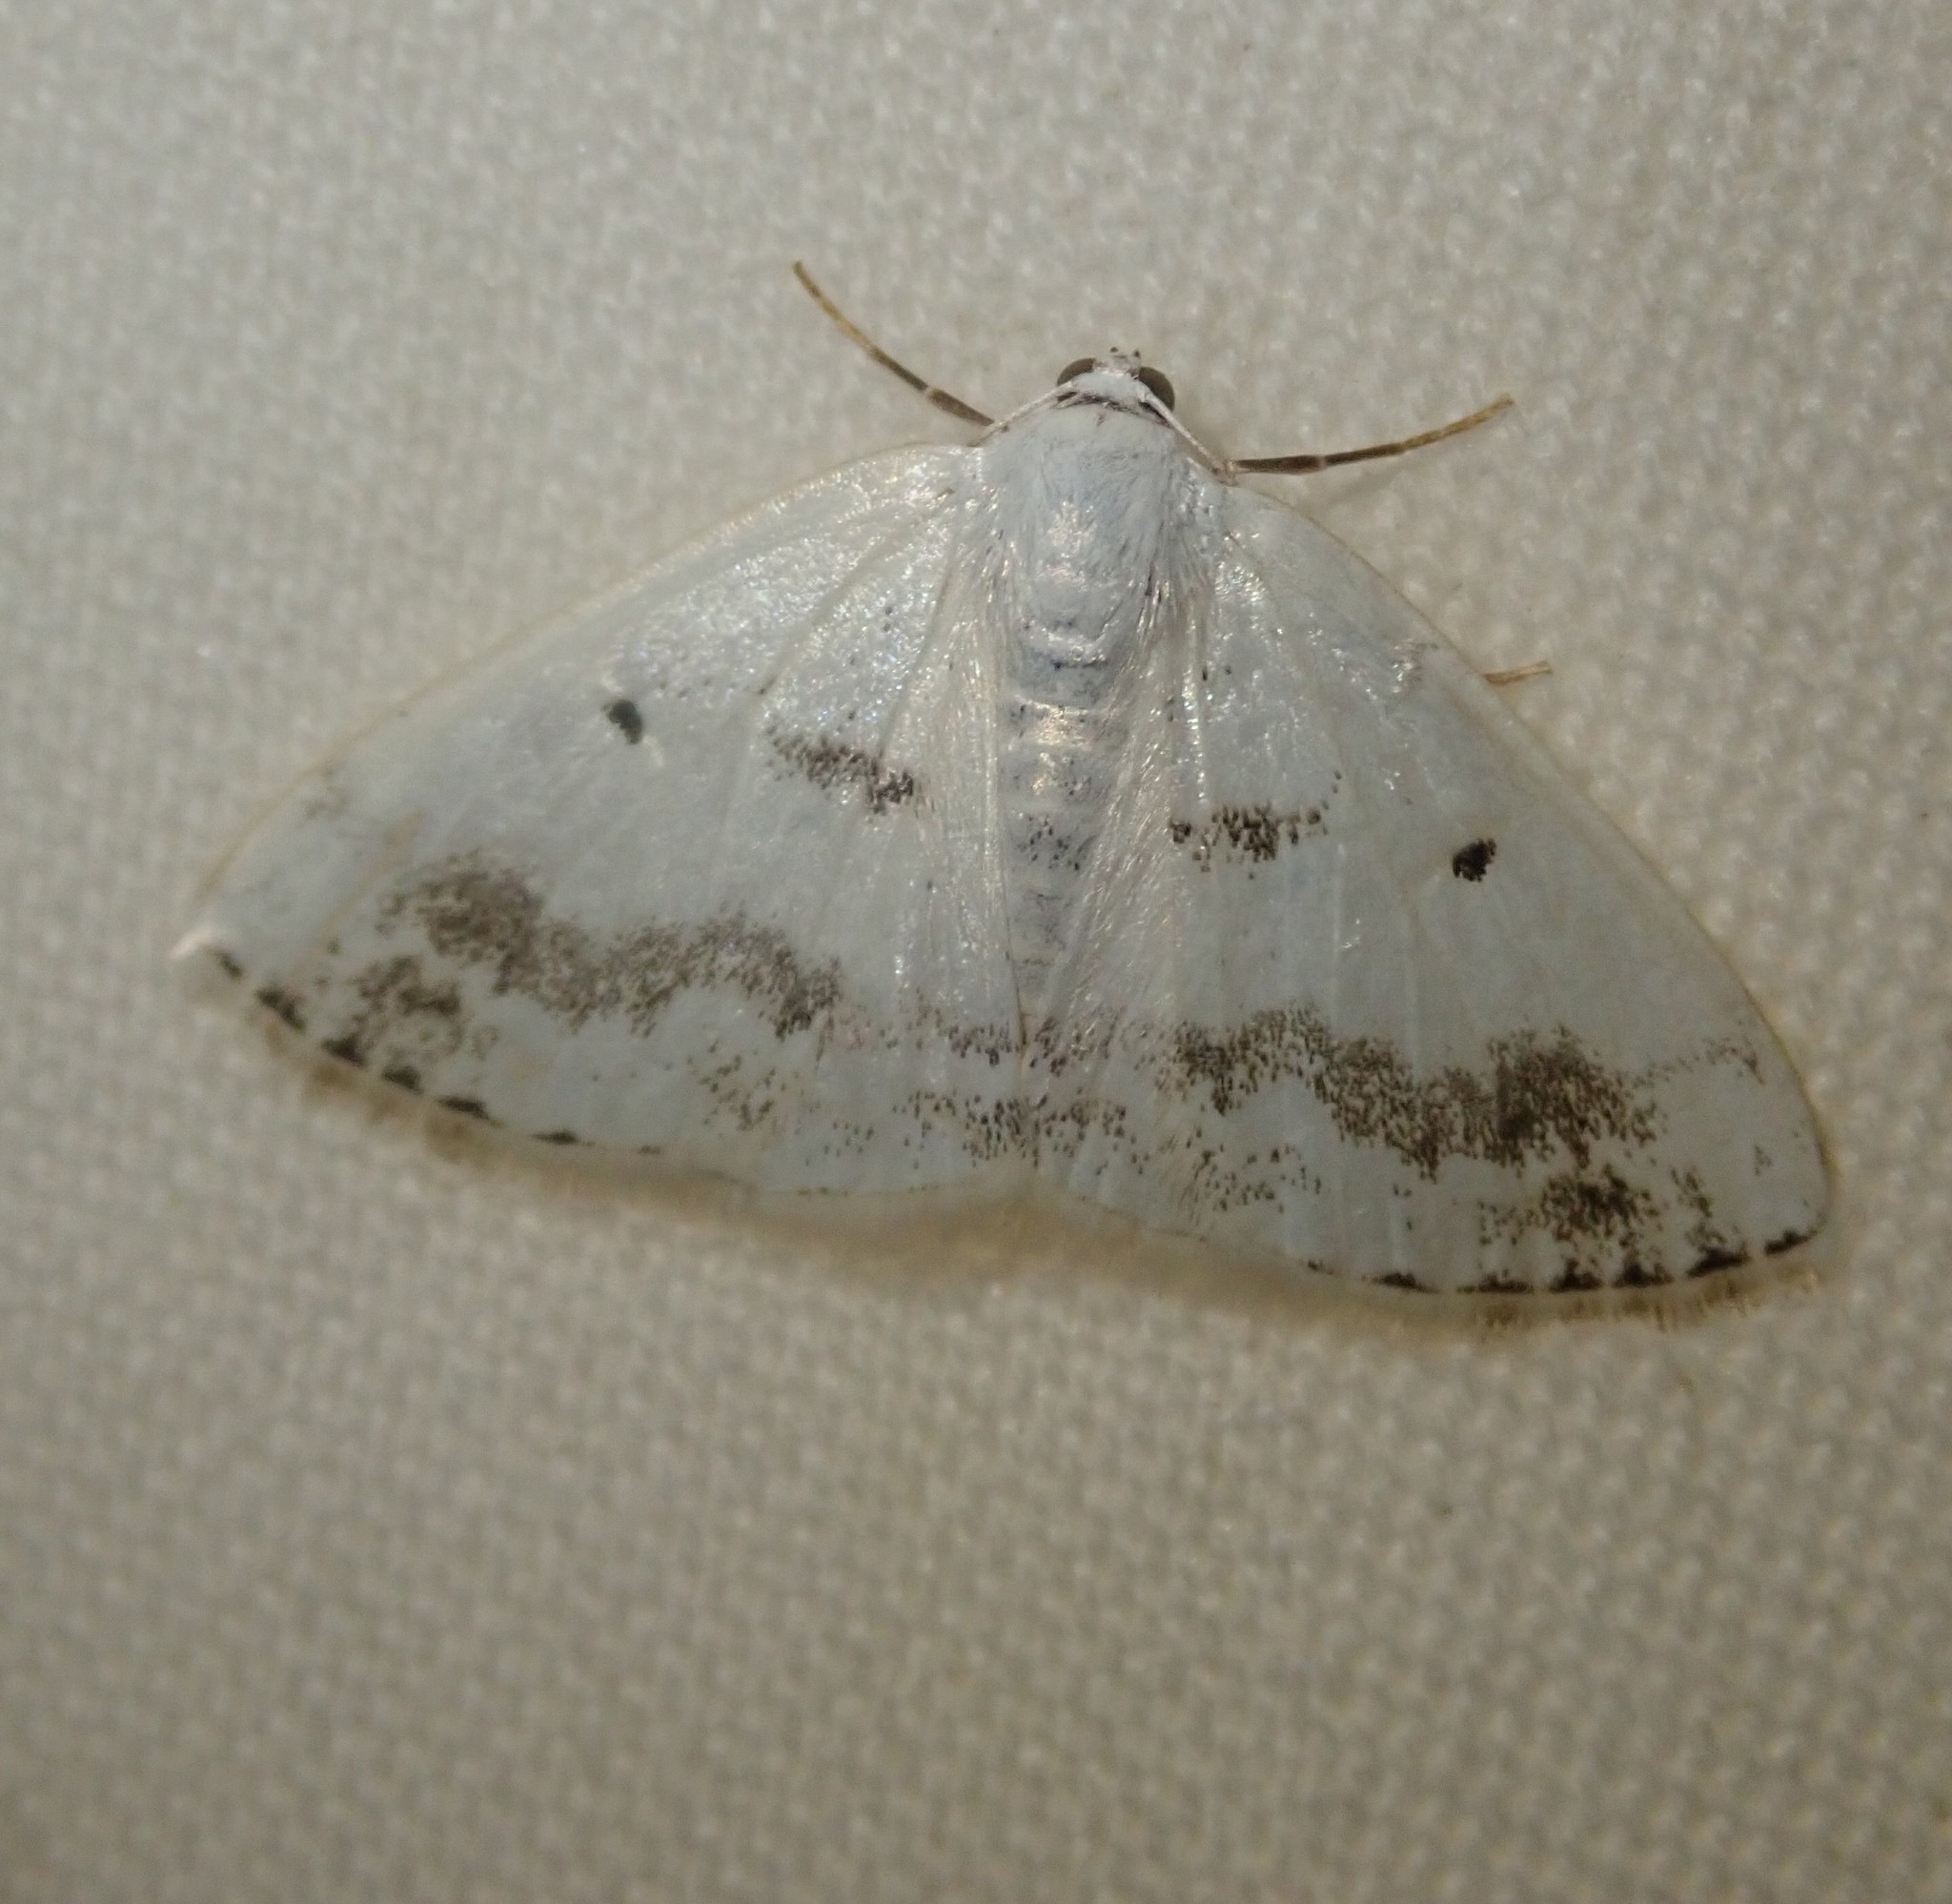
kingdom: Animalia
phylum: Arthropoda
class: Insecta
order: Lepidoptera
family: Geometridae
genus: Lomographa
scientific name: Lomographa temerata
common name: Clouded silver
